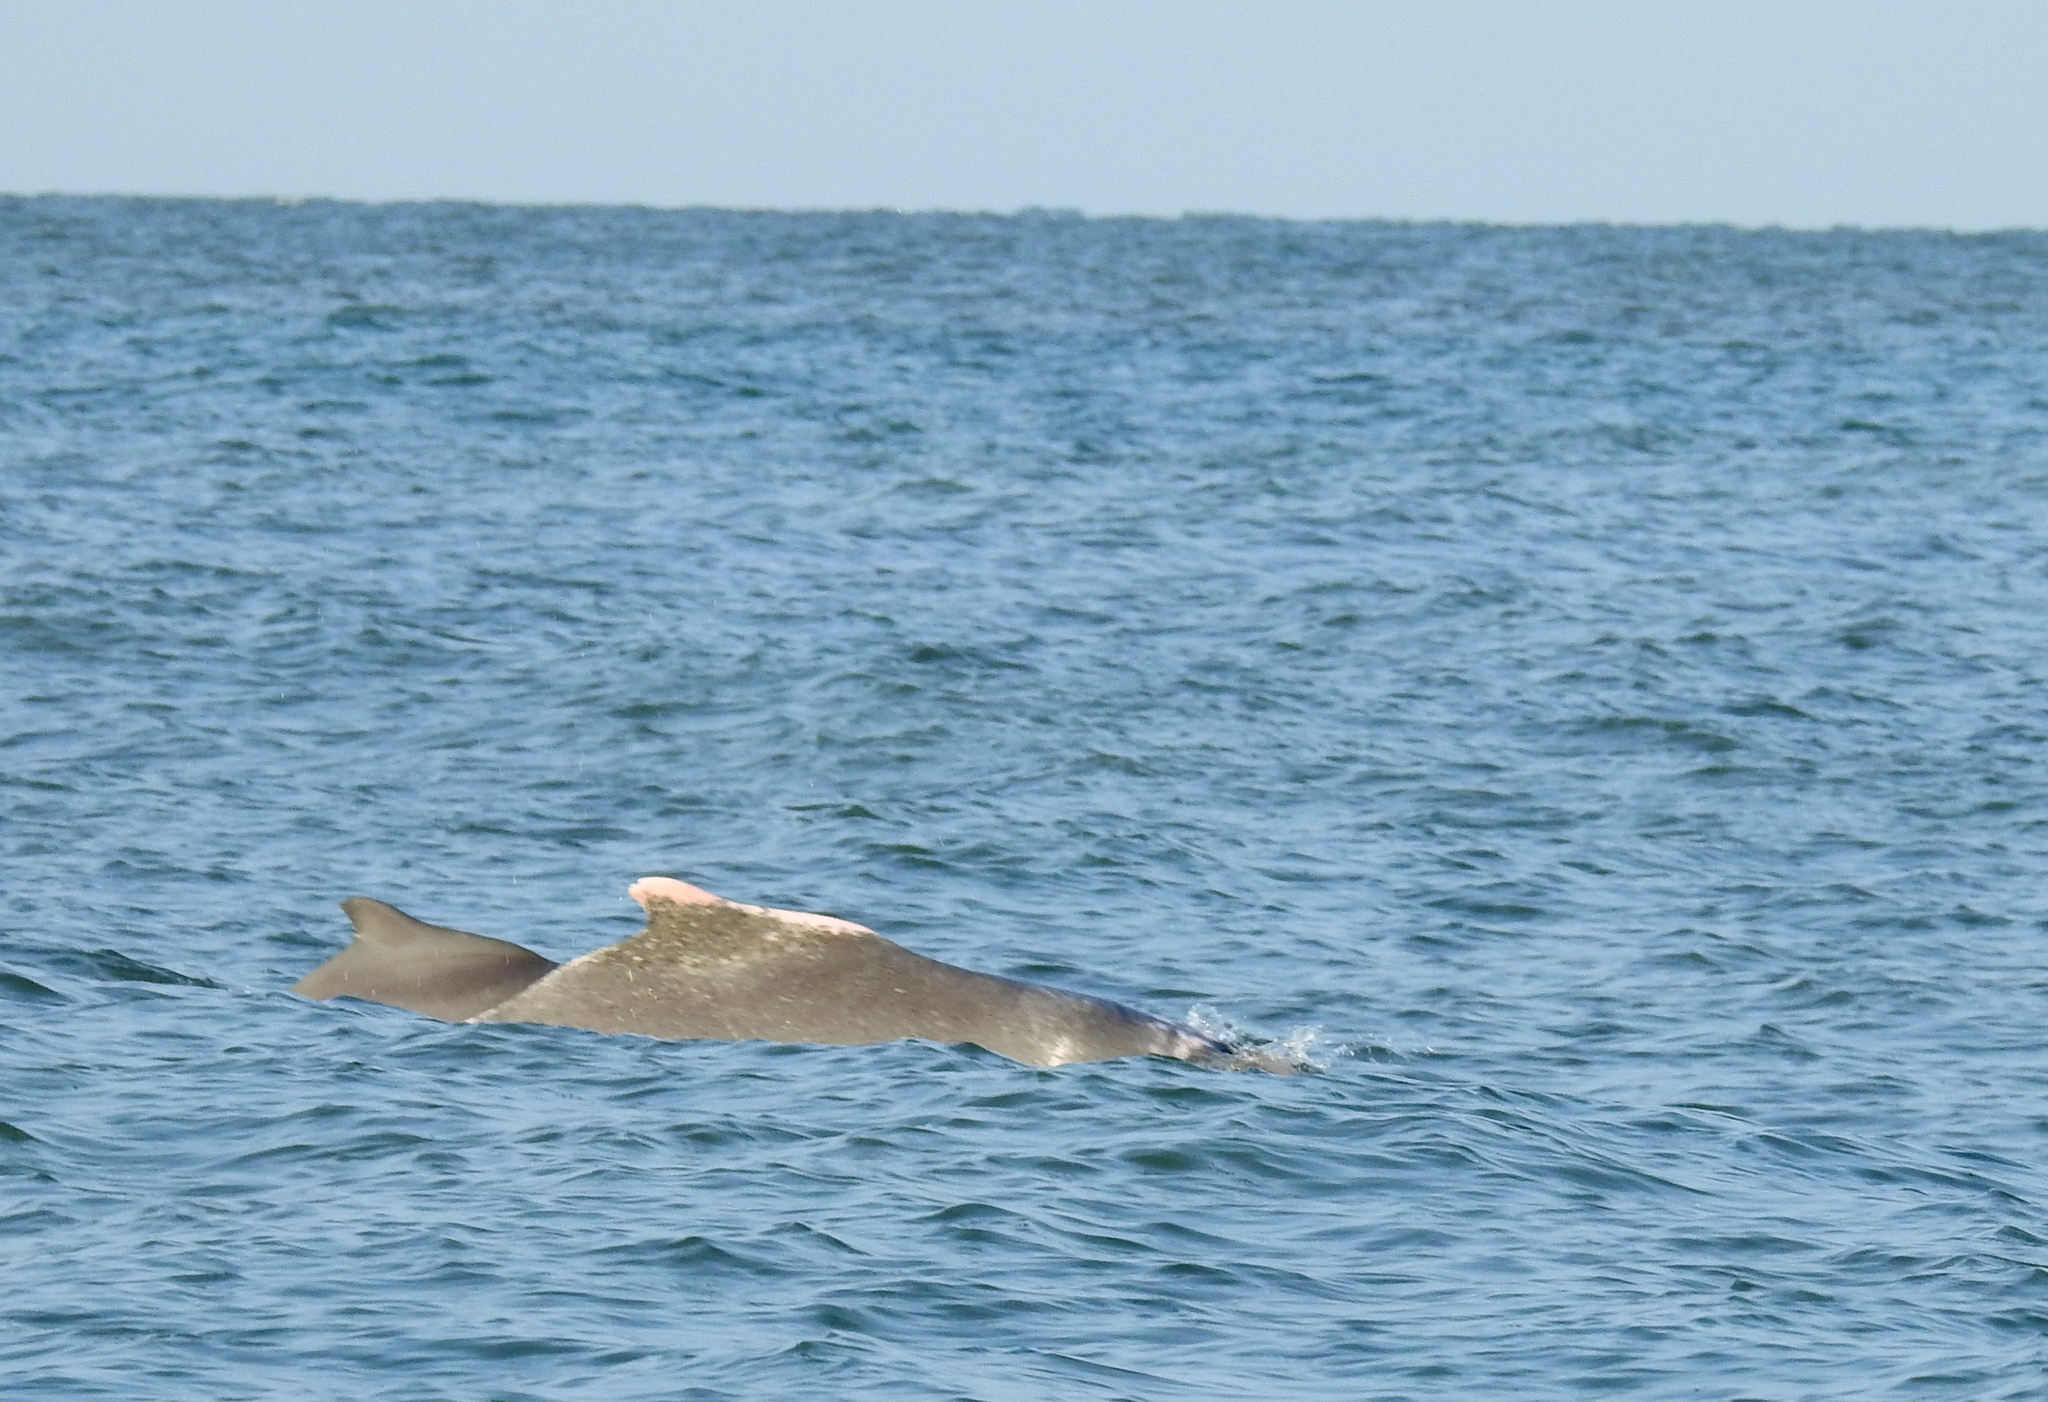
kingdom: Animalia
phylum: Chordata
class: Mammalia
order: Cetacea
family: Delphinidae
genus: Sousa
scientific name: Sousa plumbea
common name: Indian ocean humpback dolphin
